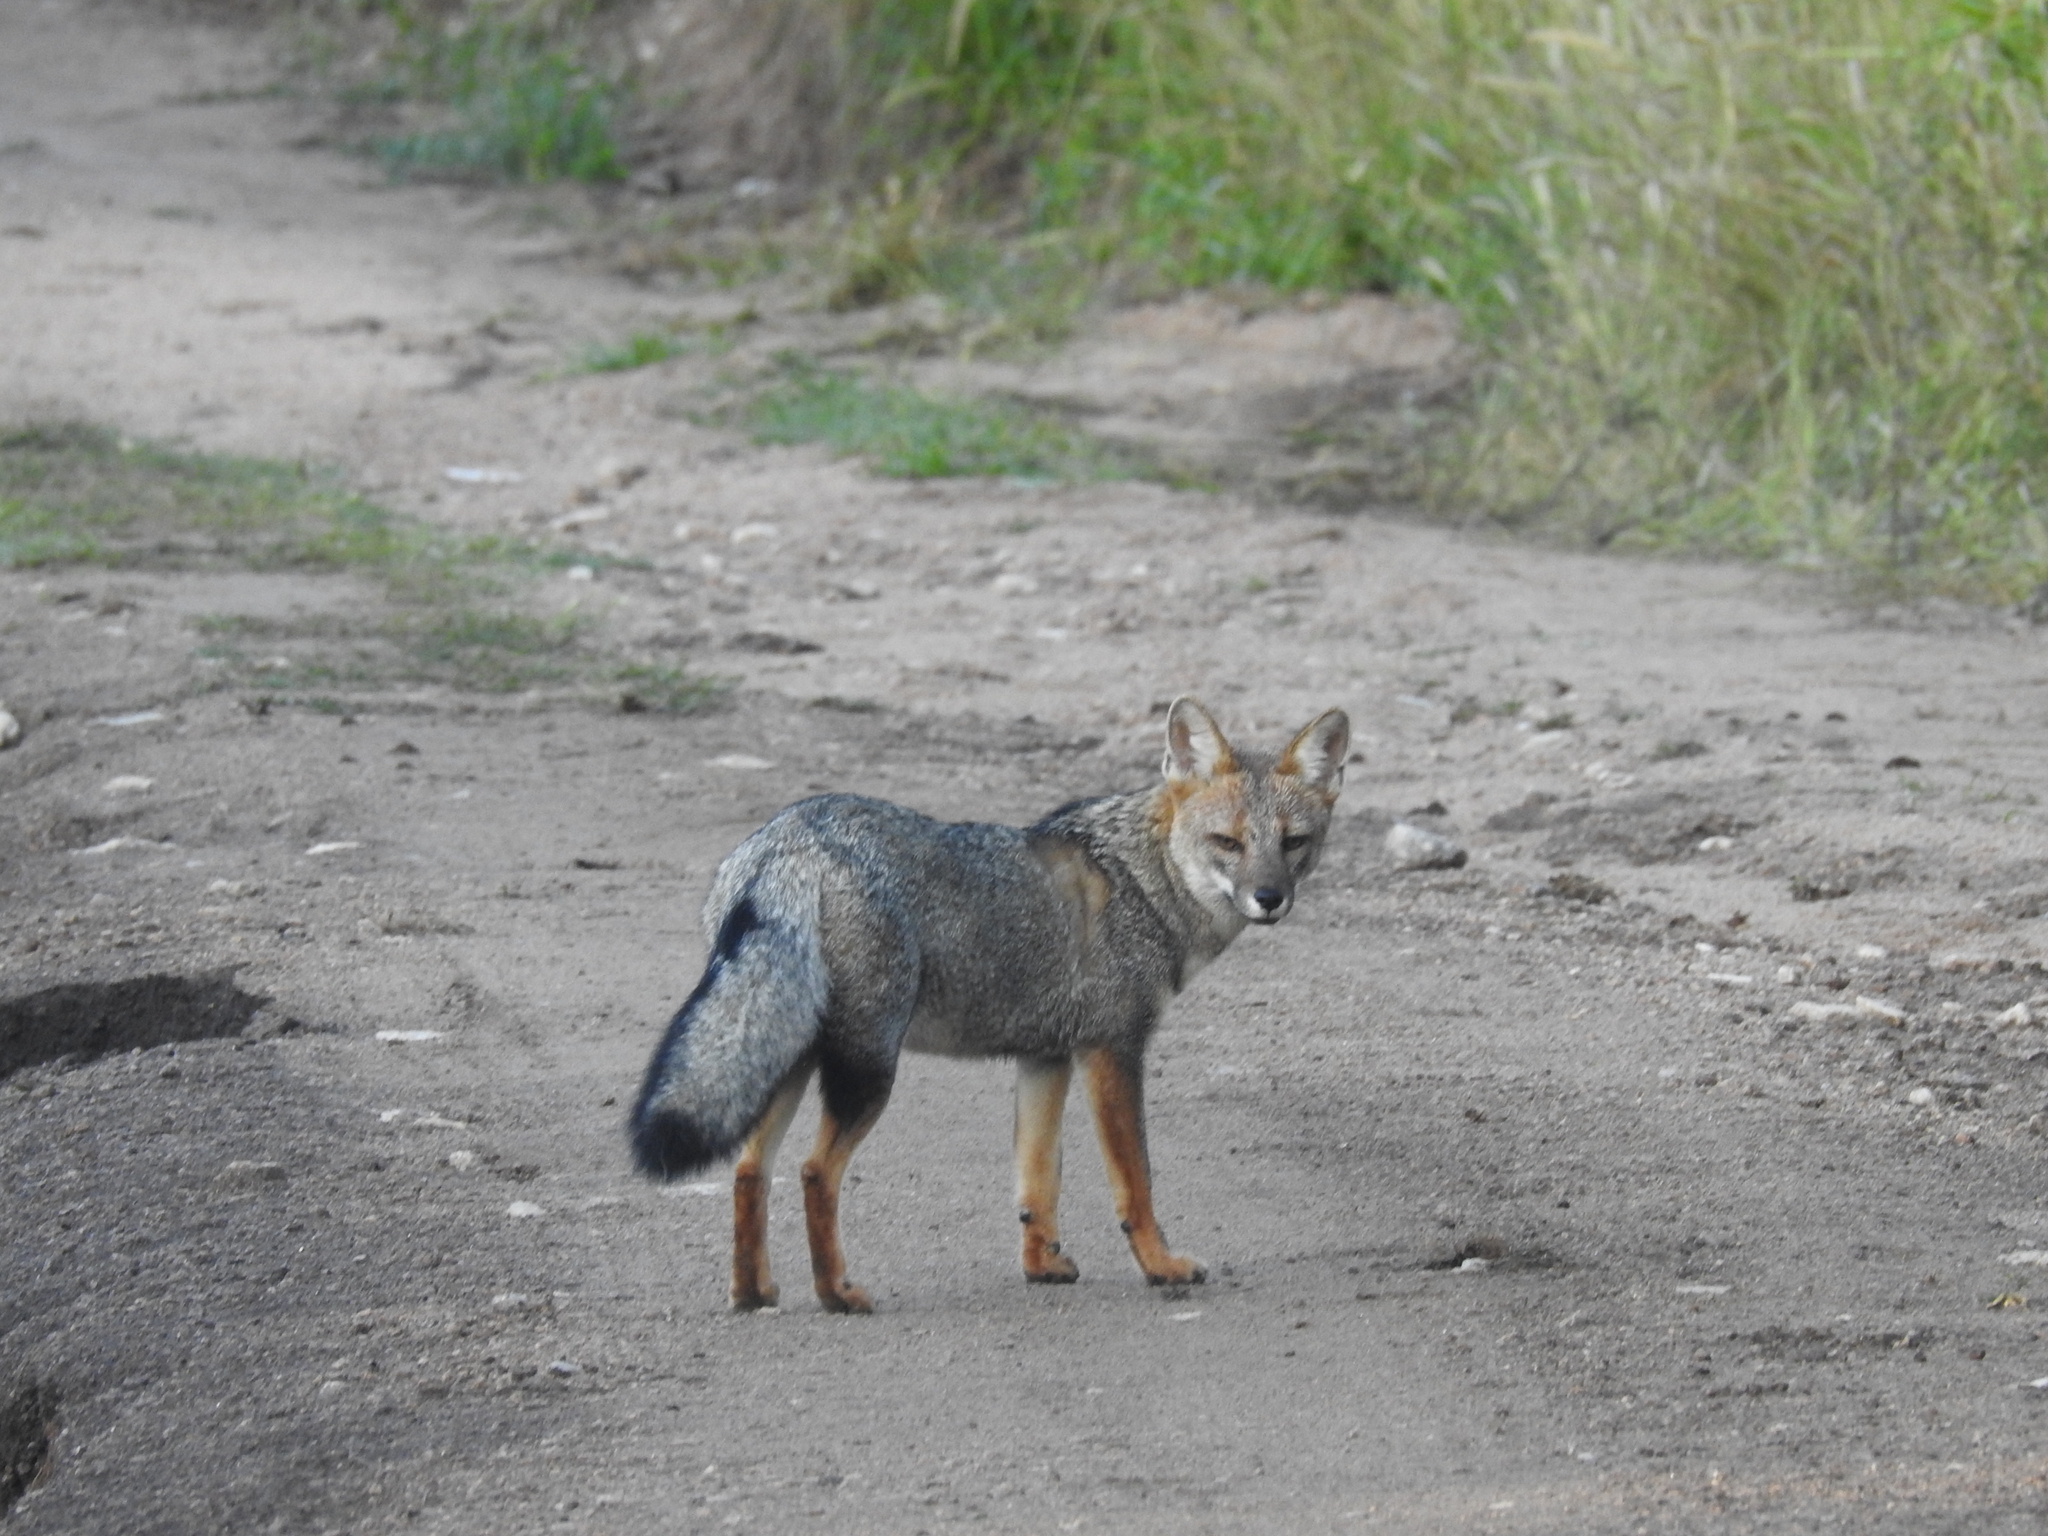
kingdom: Animalia
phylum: Chordata
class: Mammalia
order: Carnivora
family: Canidae
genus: Lycalopex
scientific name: Lycalopex gymnocercus
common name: Pampas fox
